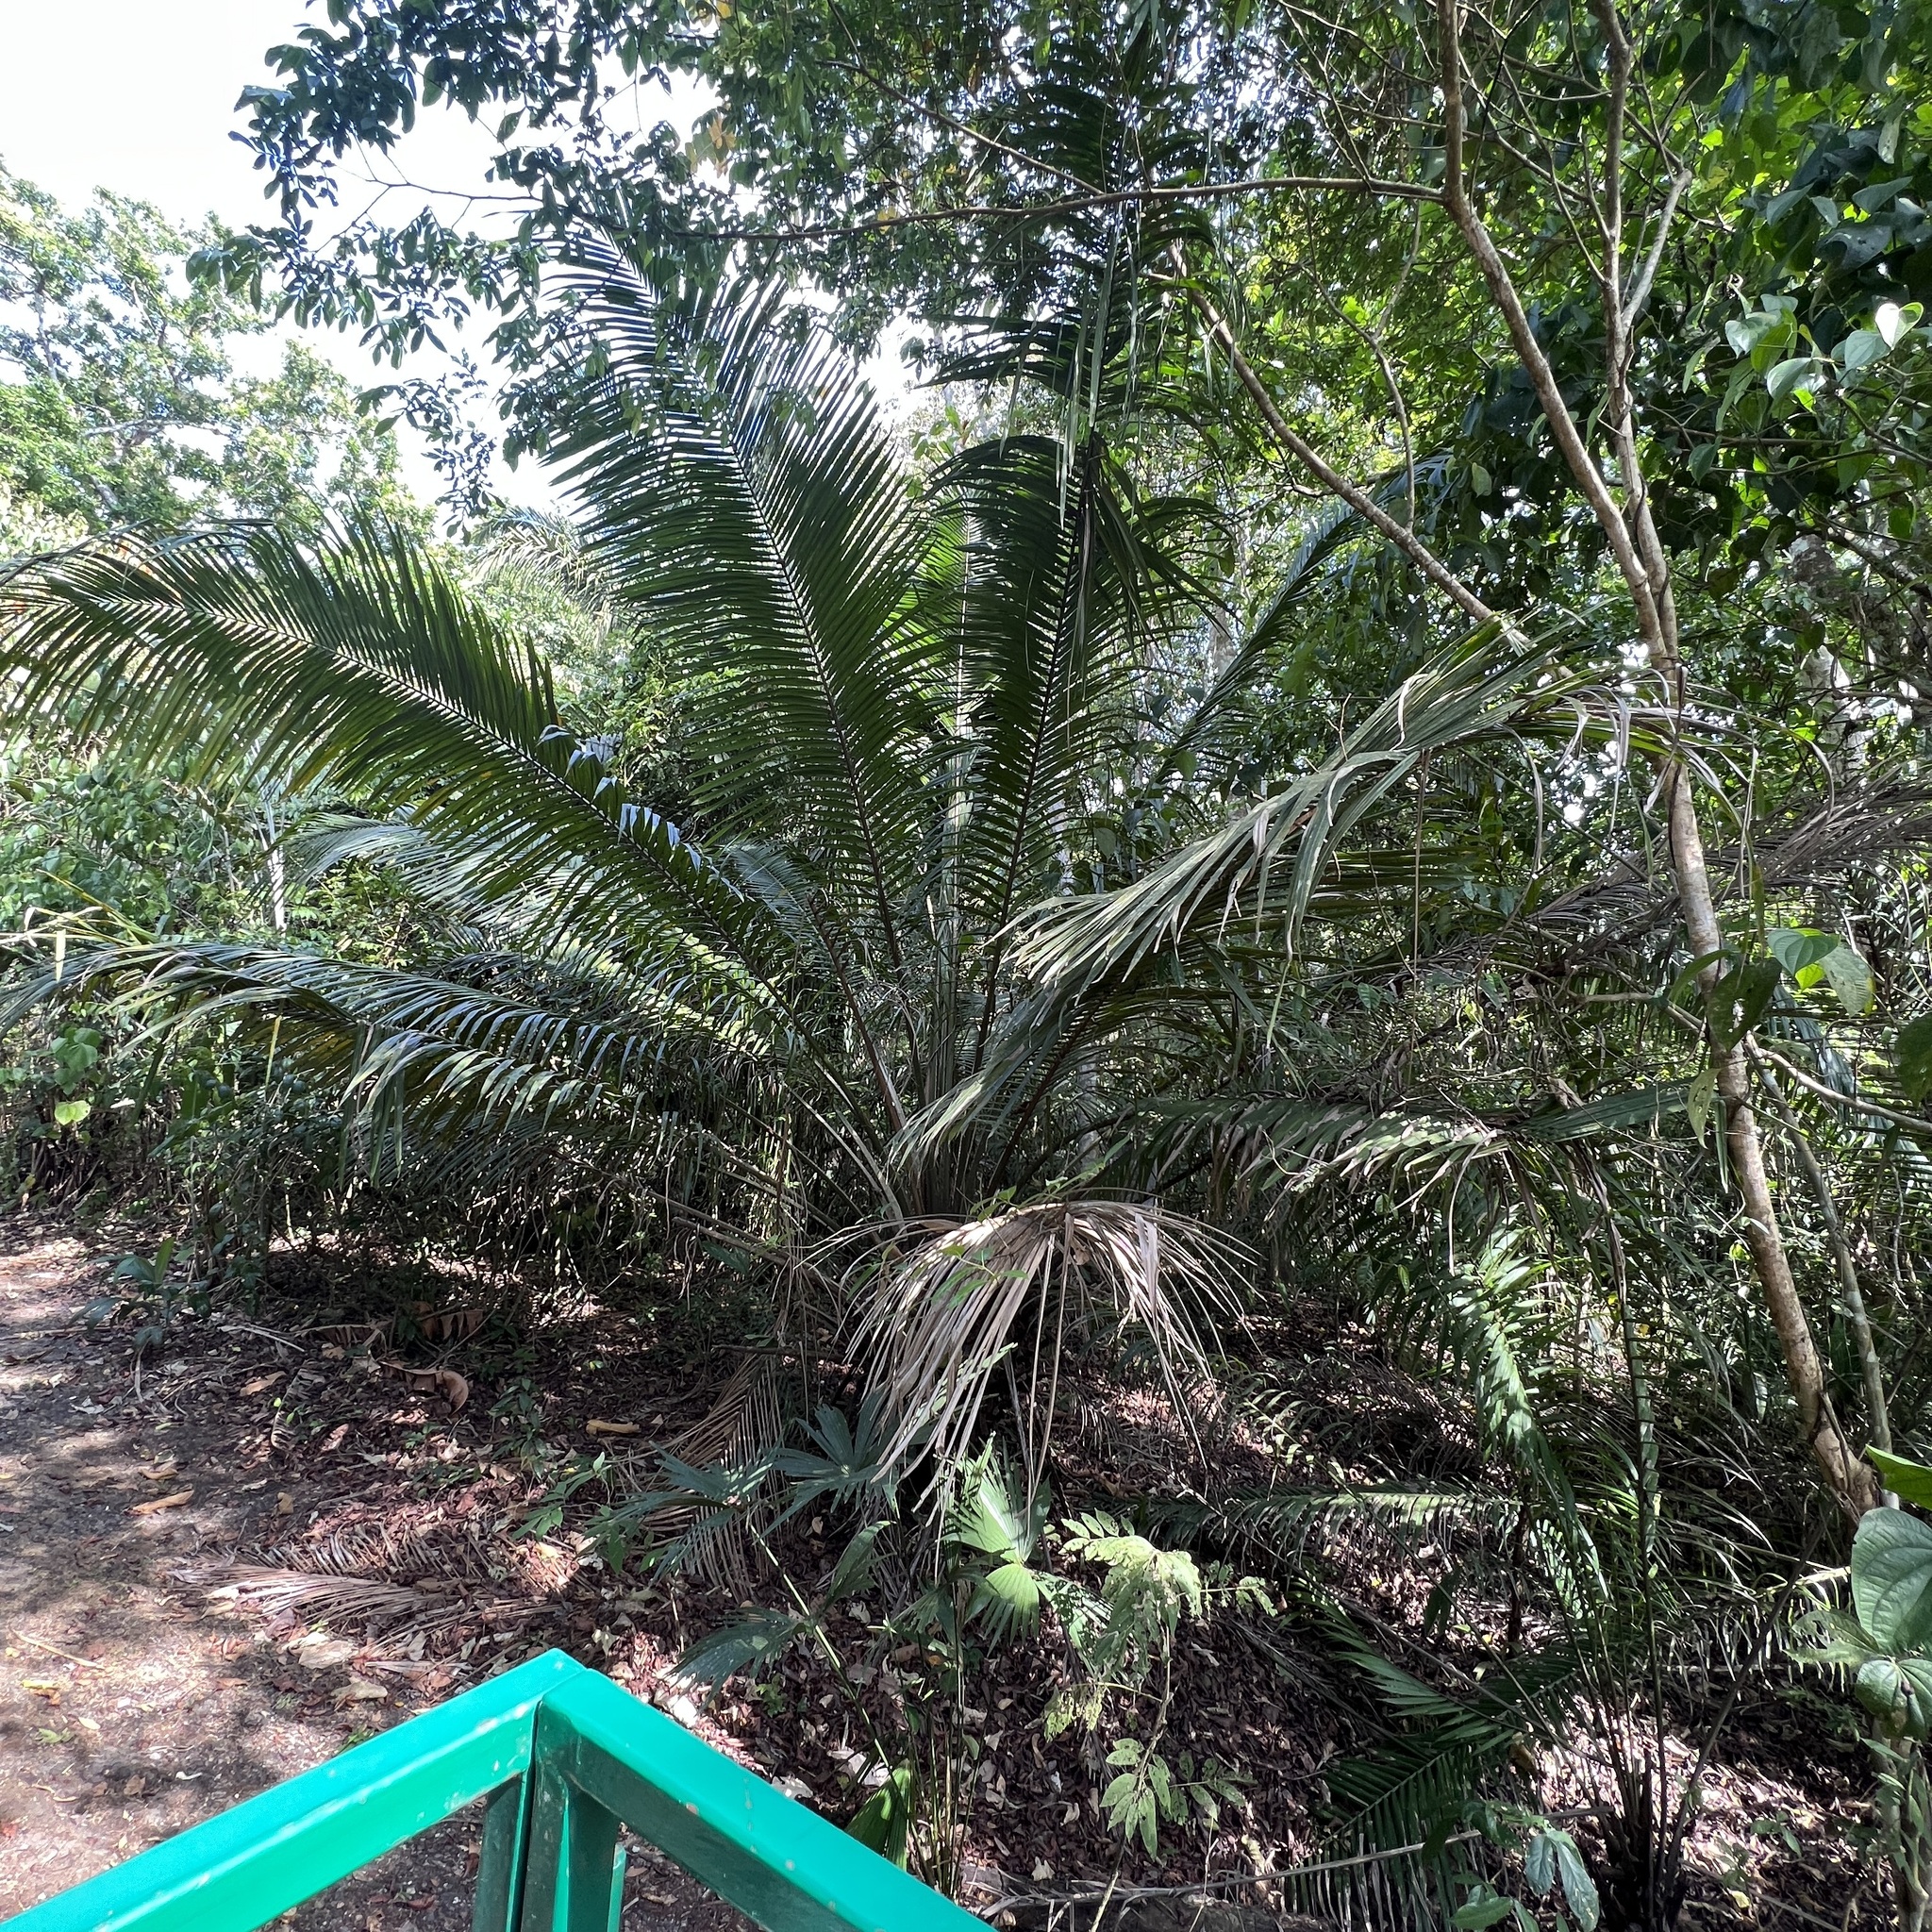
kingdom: Plantae
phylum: Tracheophyta
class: Liliopsida
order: Arecales
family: Arecaceae
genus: Elaeis
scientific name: Elaeis guineensis
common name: Oil palm
